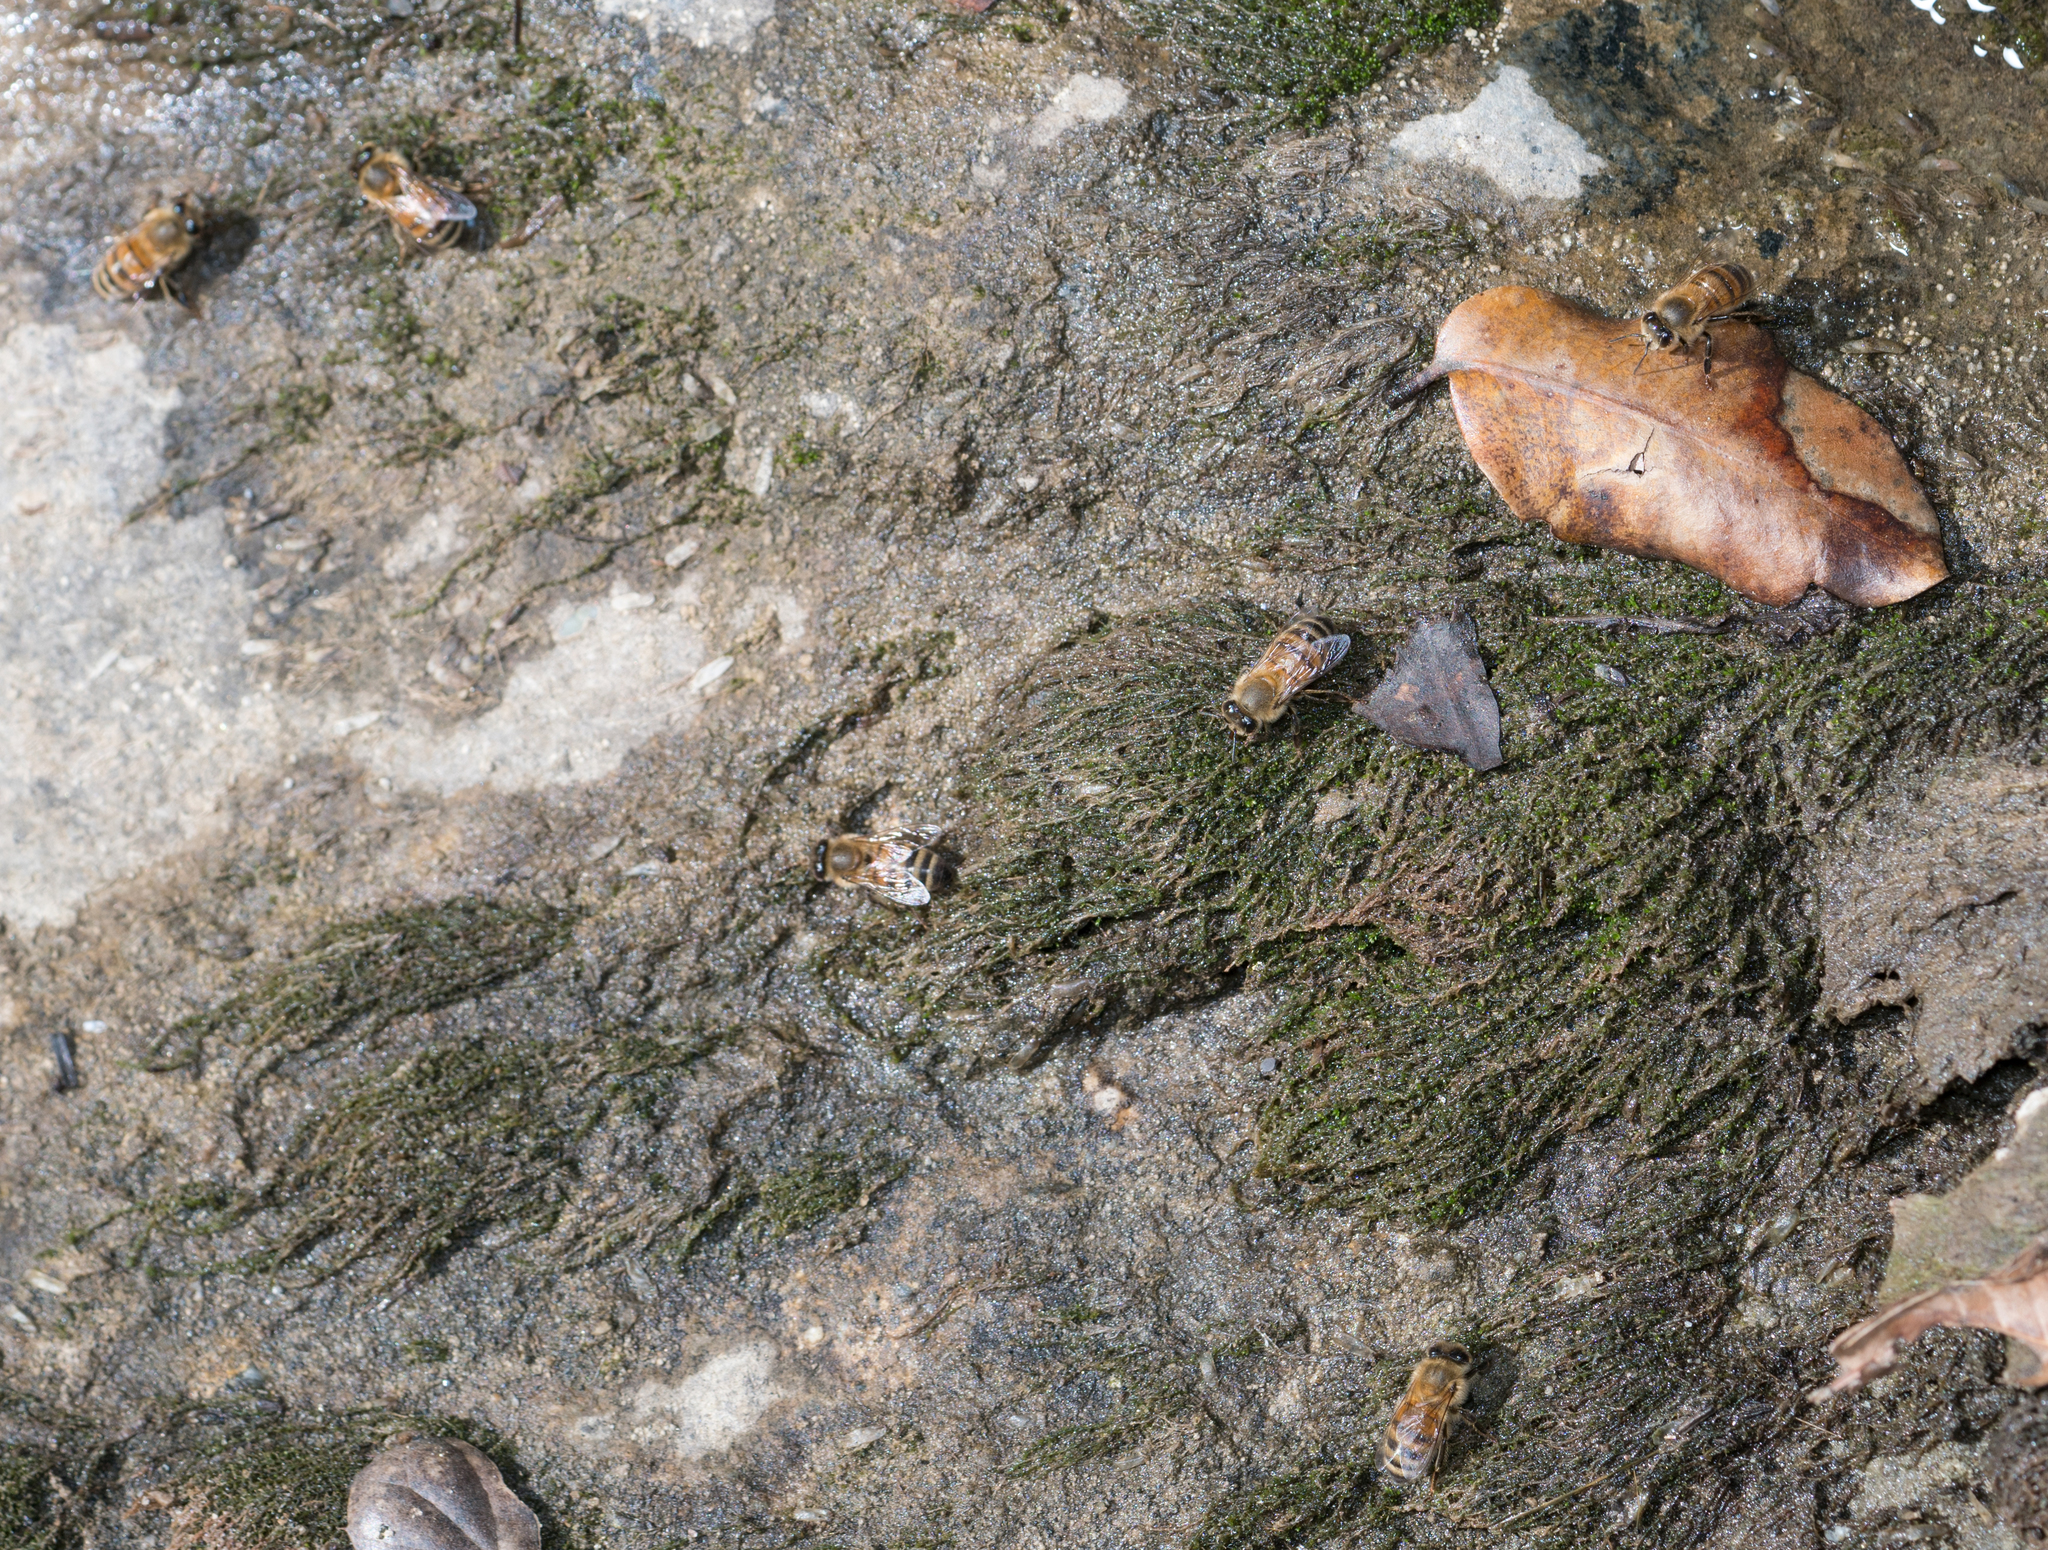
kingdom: Animalia
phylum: Arthropoda
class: Insecta
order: Hymenoptera
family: Apidae
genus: Apis
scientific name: Apis mellifera
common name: Honey bee
